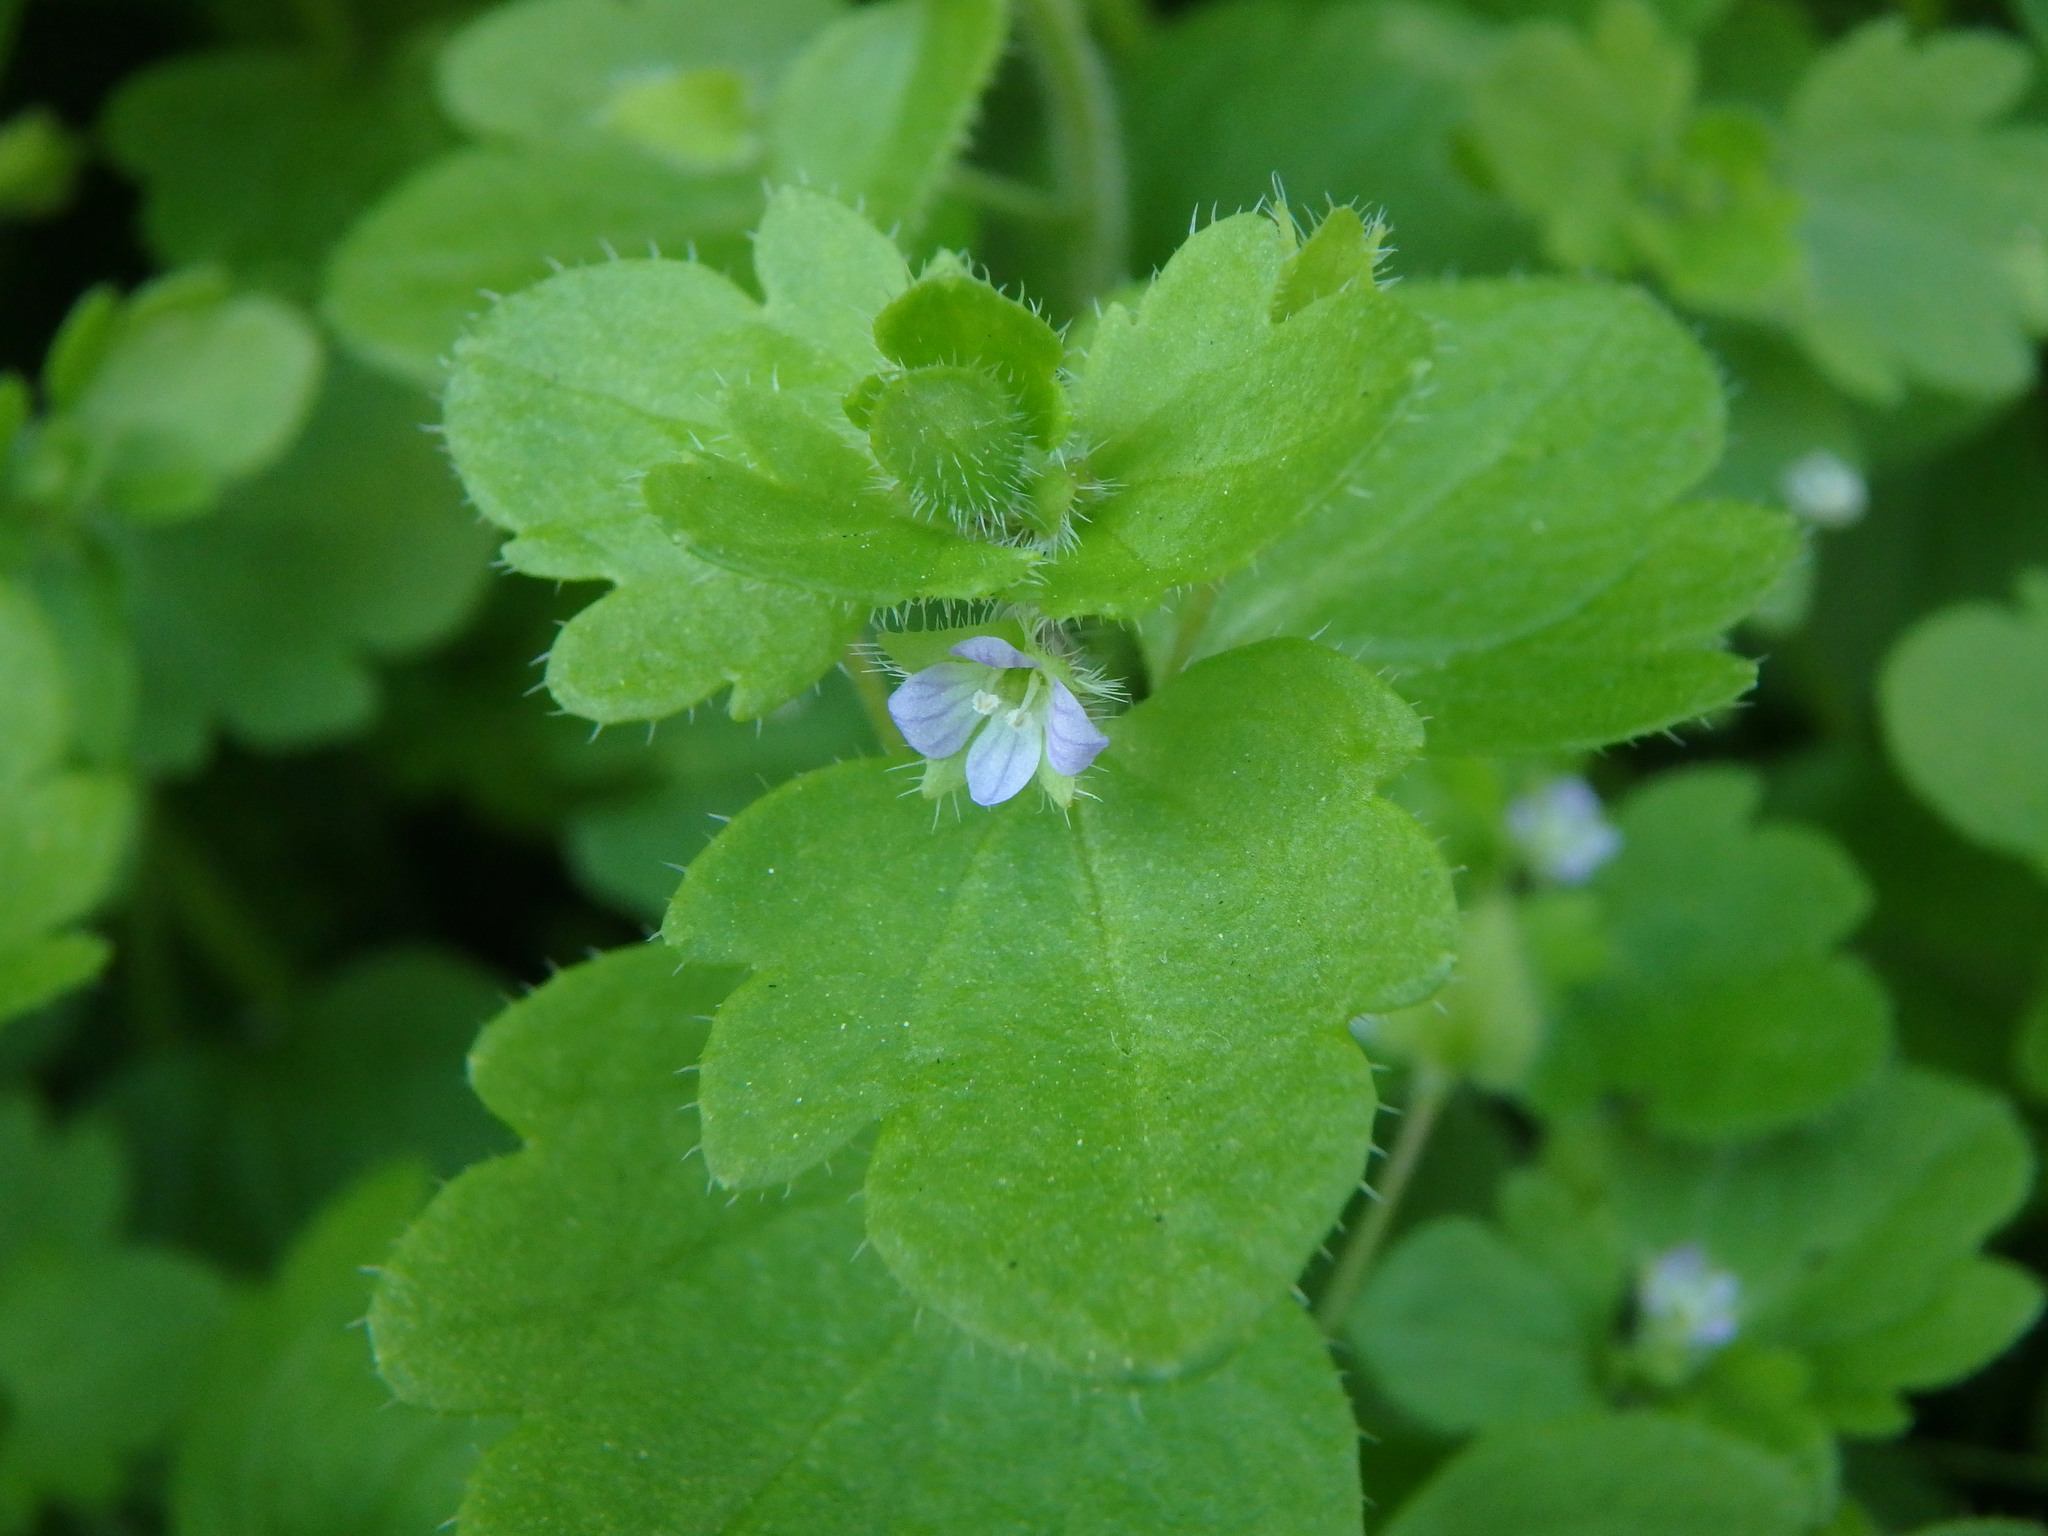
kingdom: Plantae
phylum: Tracheophyta
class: Magnoliopsida
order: Lamiales
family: Plantaginaceae
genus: Veronica
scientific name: Veronica hederifolia
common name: Ivy-leaved speedwell
